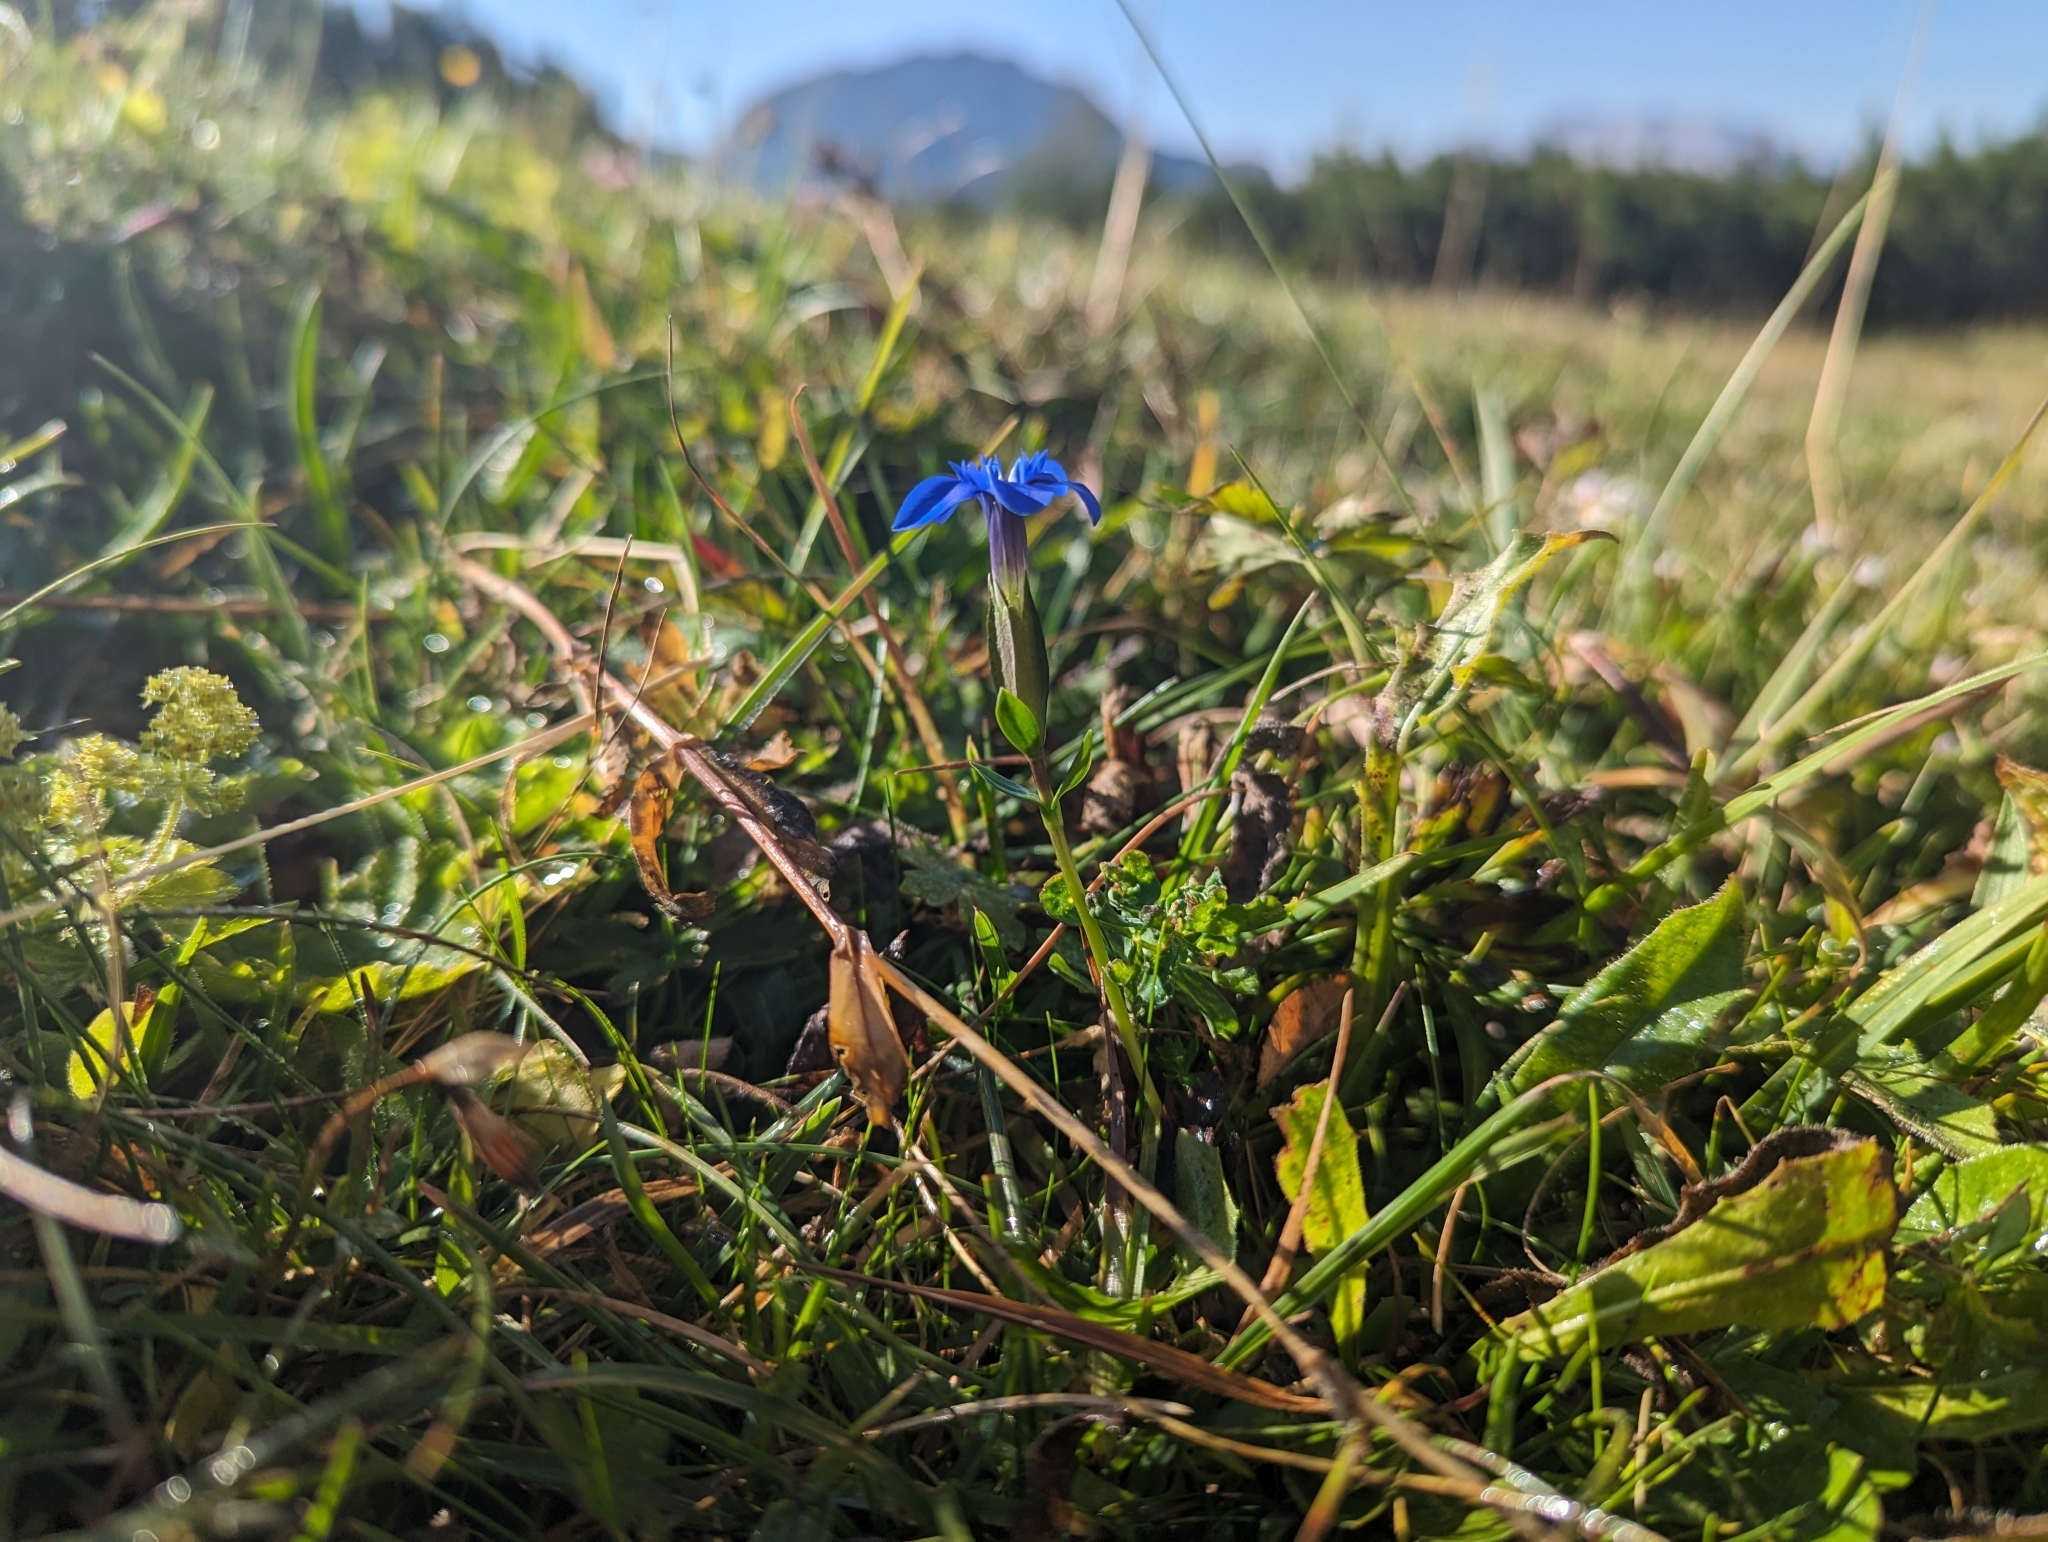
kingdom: Plantae
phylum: Tracheophyta
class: Magnoliopsida
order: Gentianales
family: Gentianaceae
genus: Gentiana
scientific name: Gentiana verna
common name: Spring gentian
